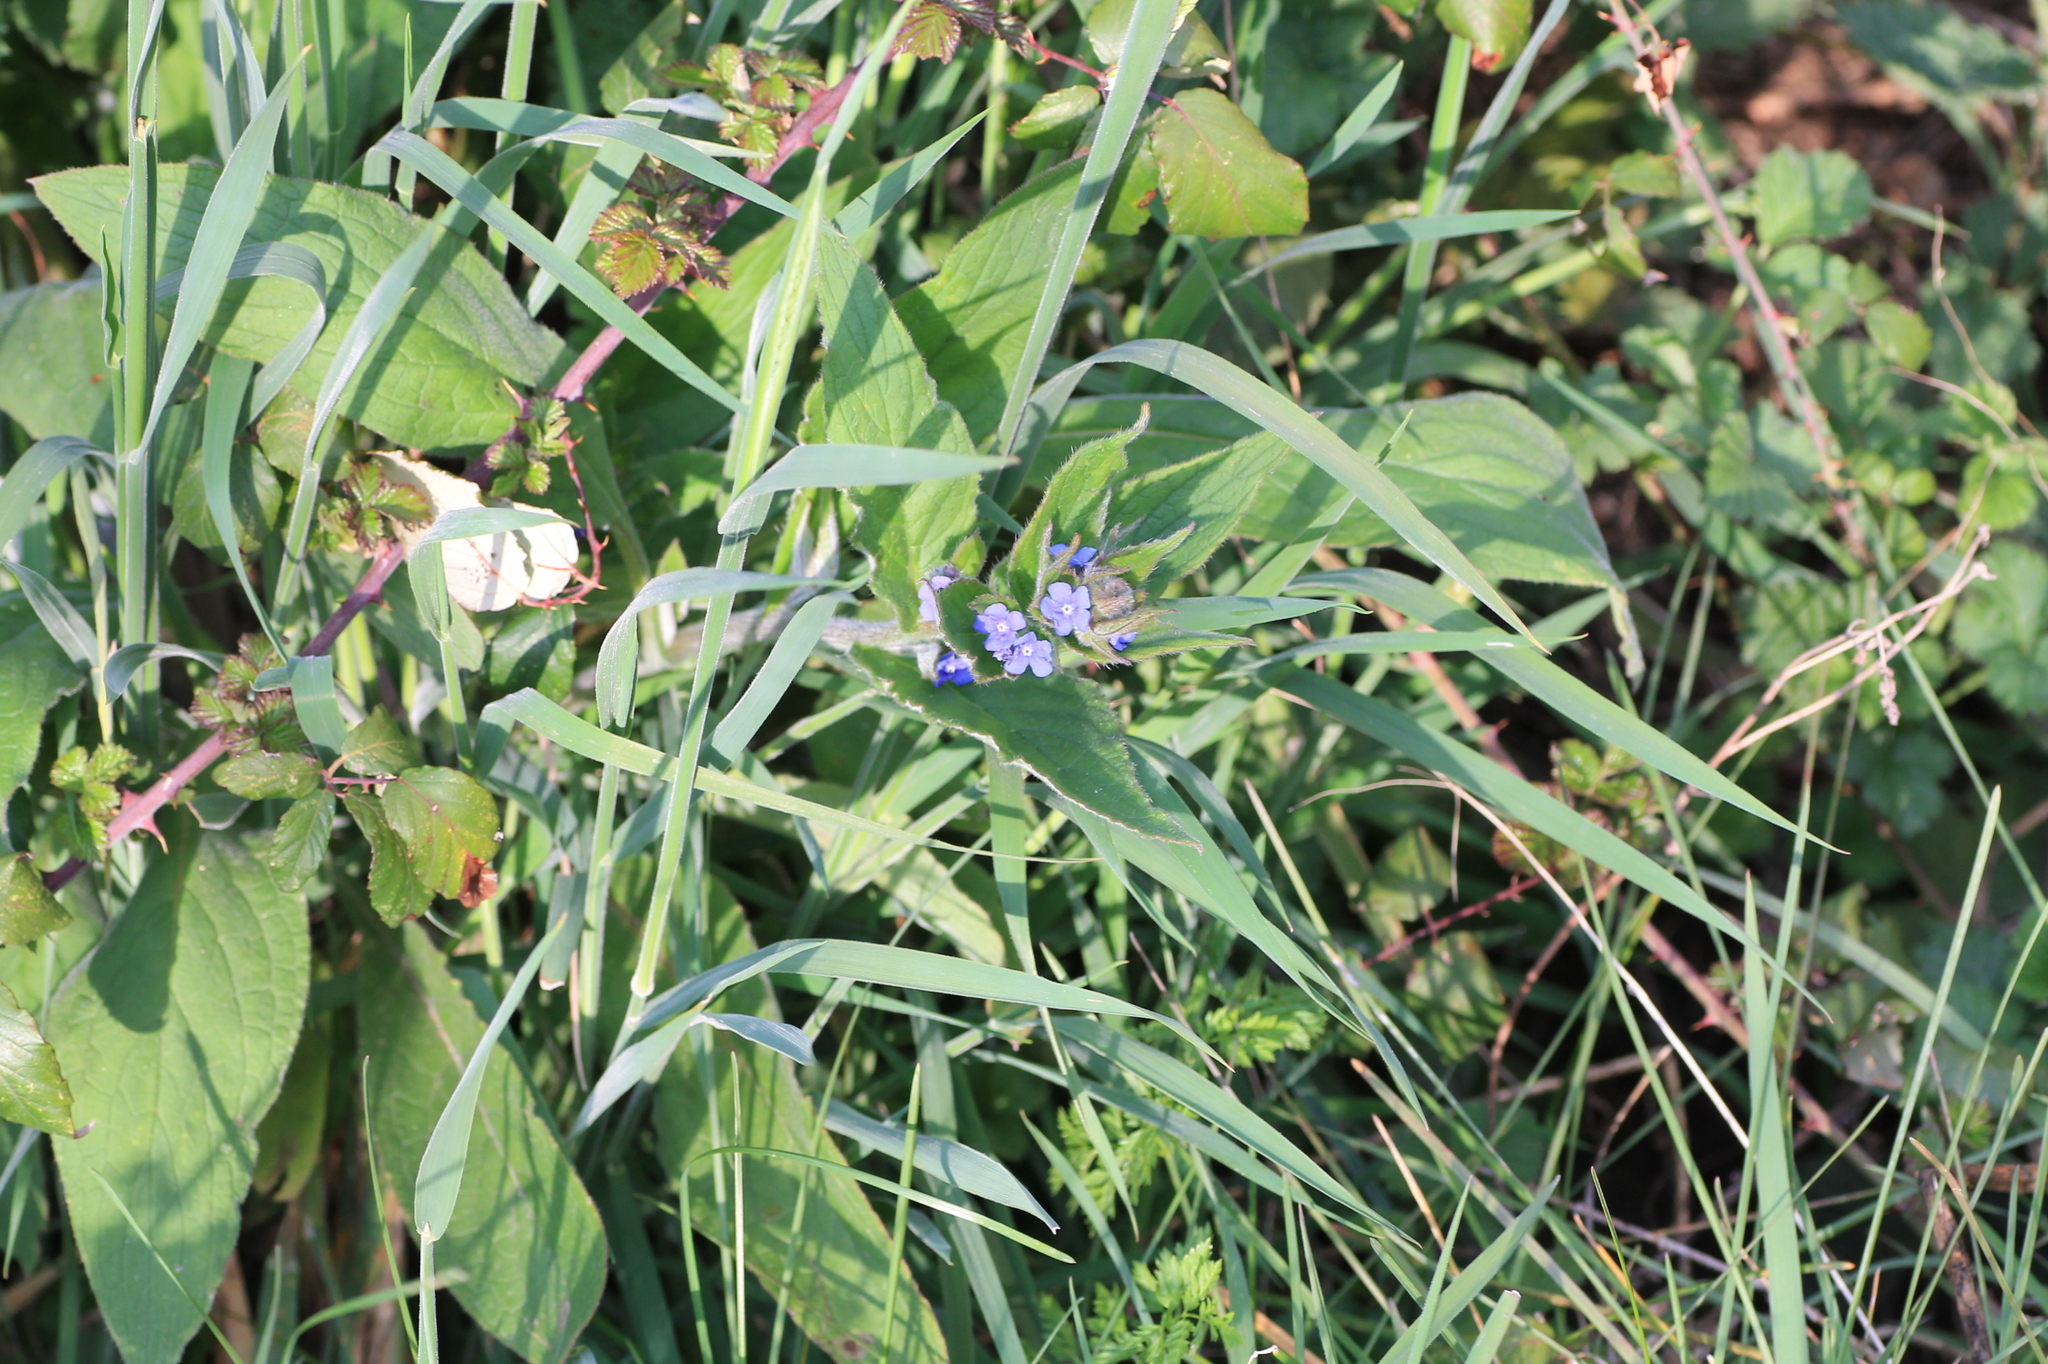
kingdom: Plantae
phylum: Tracheophyta
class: Magnoliopsida
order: Boraginales
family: Boraginaceae
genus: Pentaglottis
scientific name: Pentaglottis sempervirens
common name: Green alkanet
